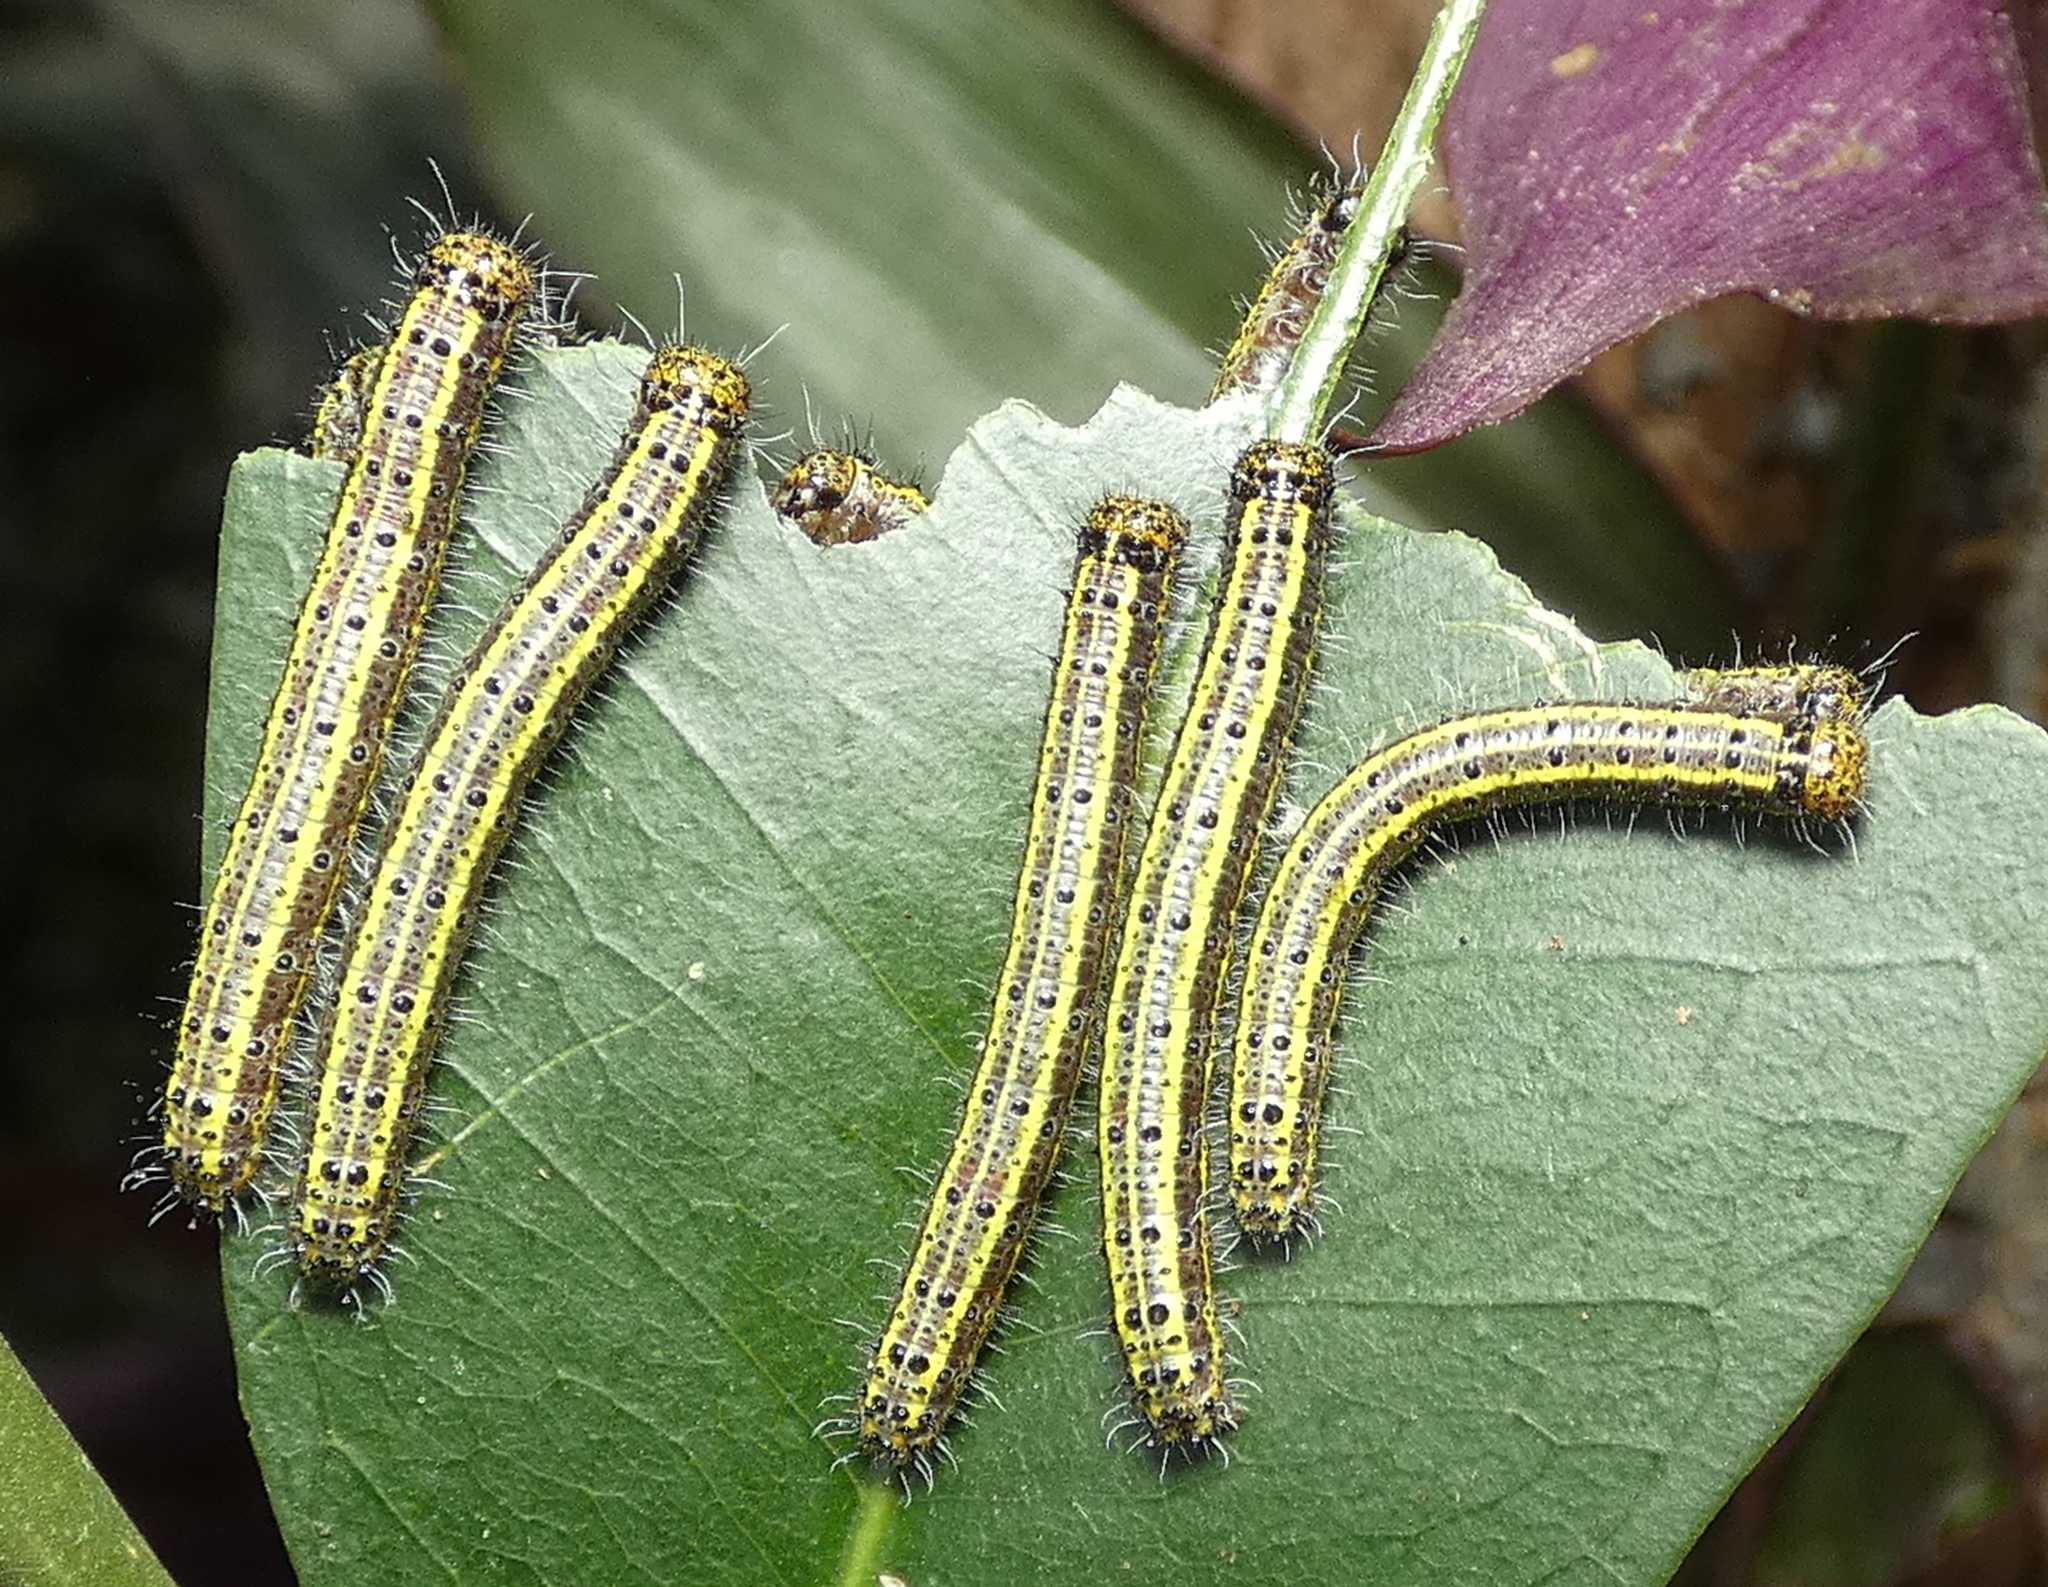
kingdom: Animalia
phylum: Arthropoda
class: Insecta
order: Lepidoptera
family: Pieridae
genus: Ascia
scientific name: Ascia monuste
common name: Great southern white
